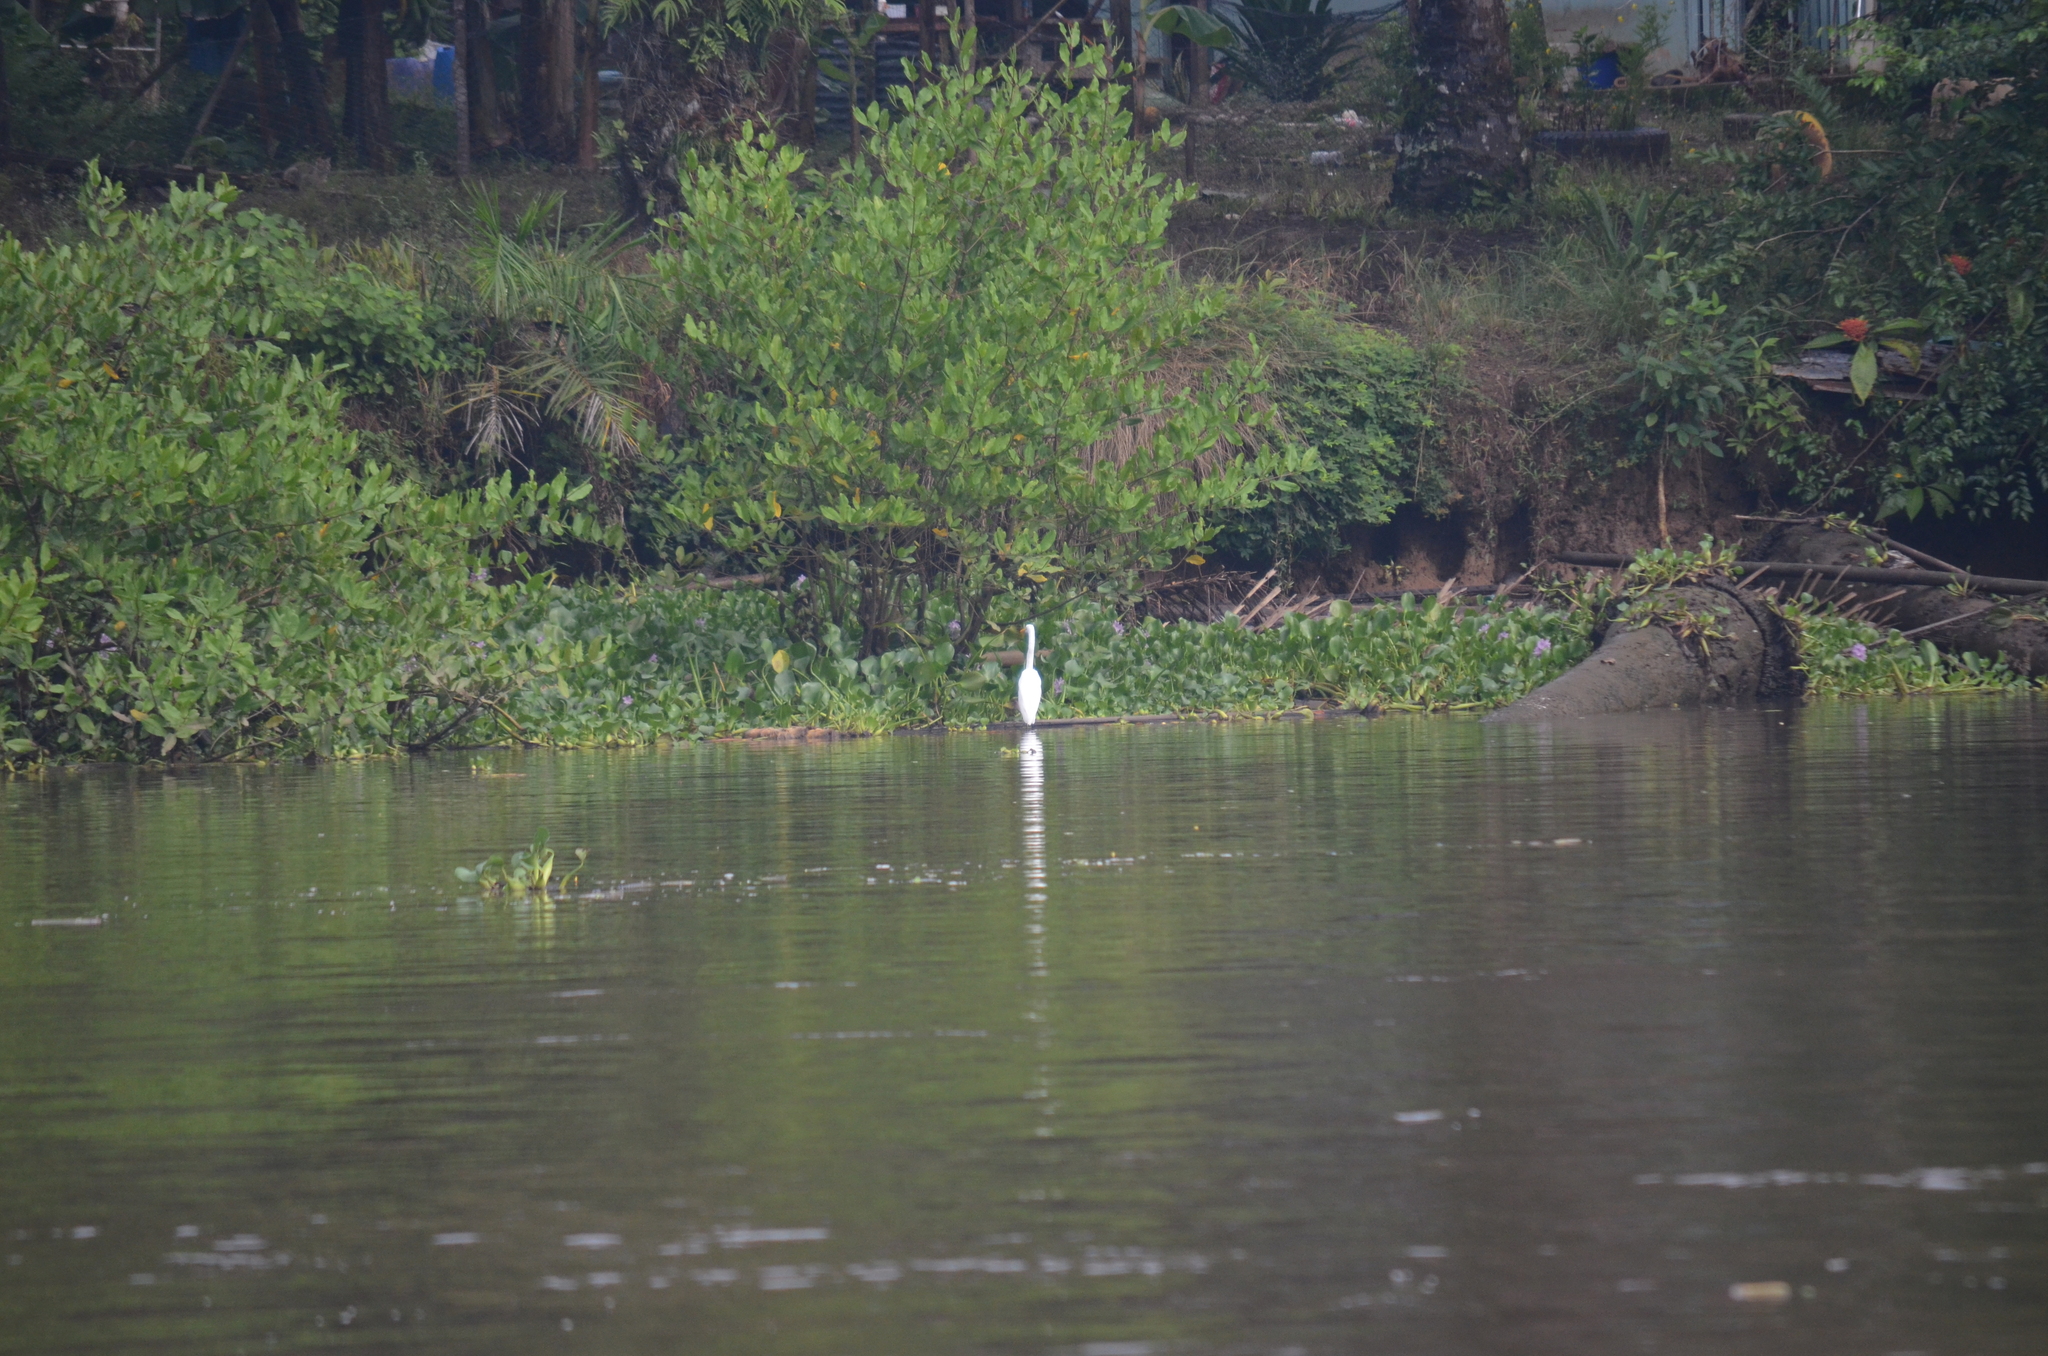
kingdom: Animalia
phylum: Chordata
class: Aves
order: Pelecaniformes
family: Ardeidae
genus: Ardea
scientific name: Ardea alba
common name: Great egret
